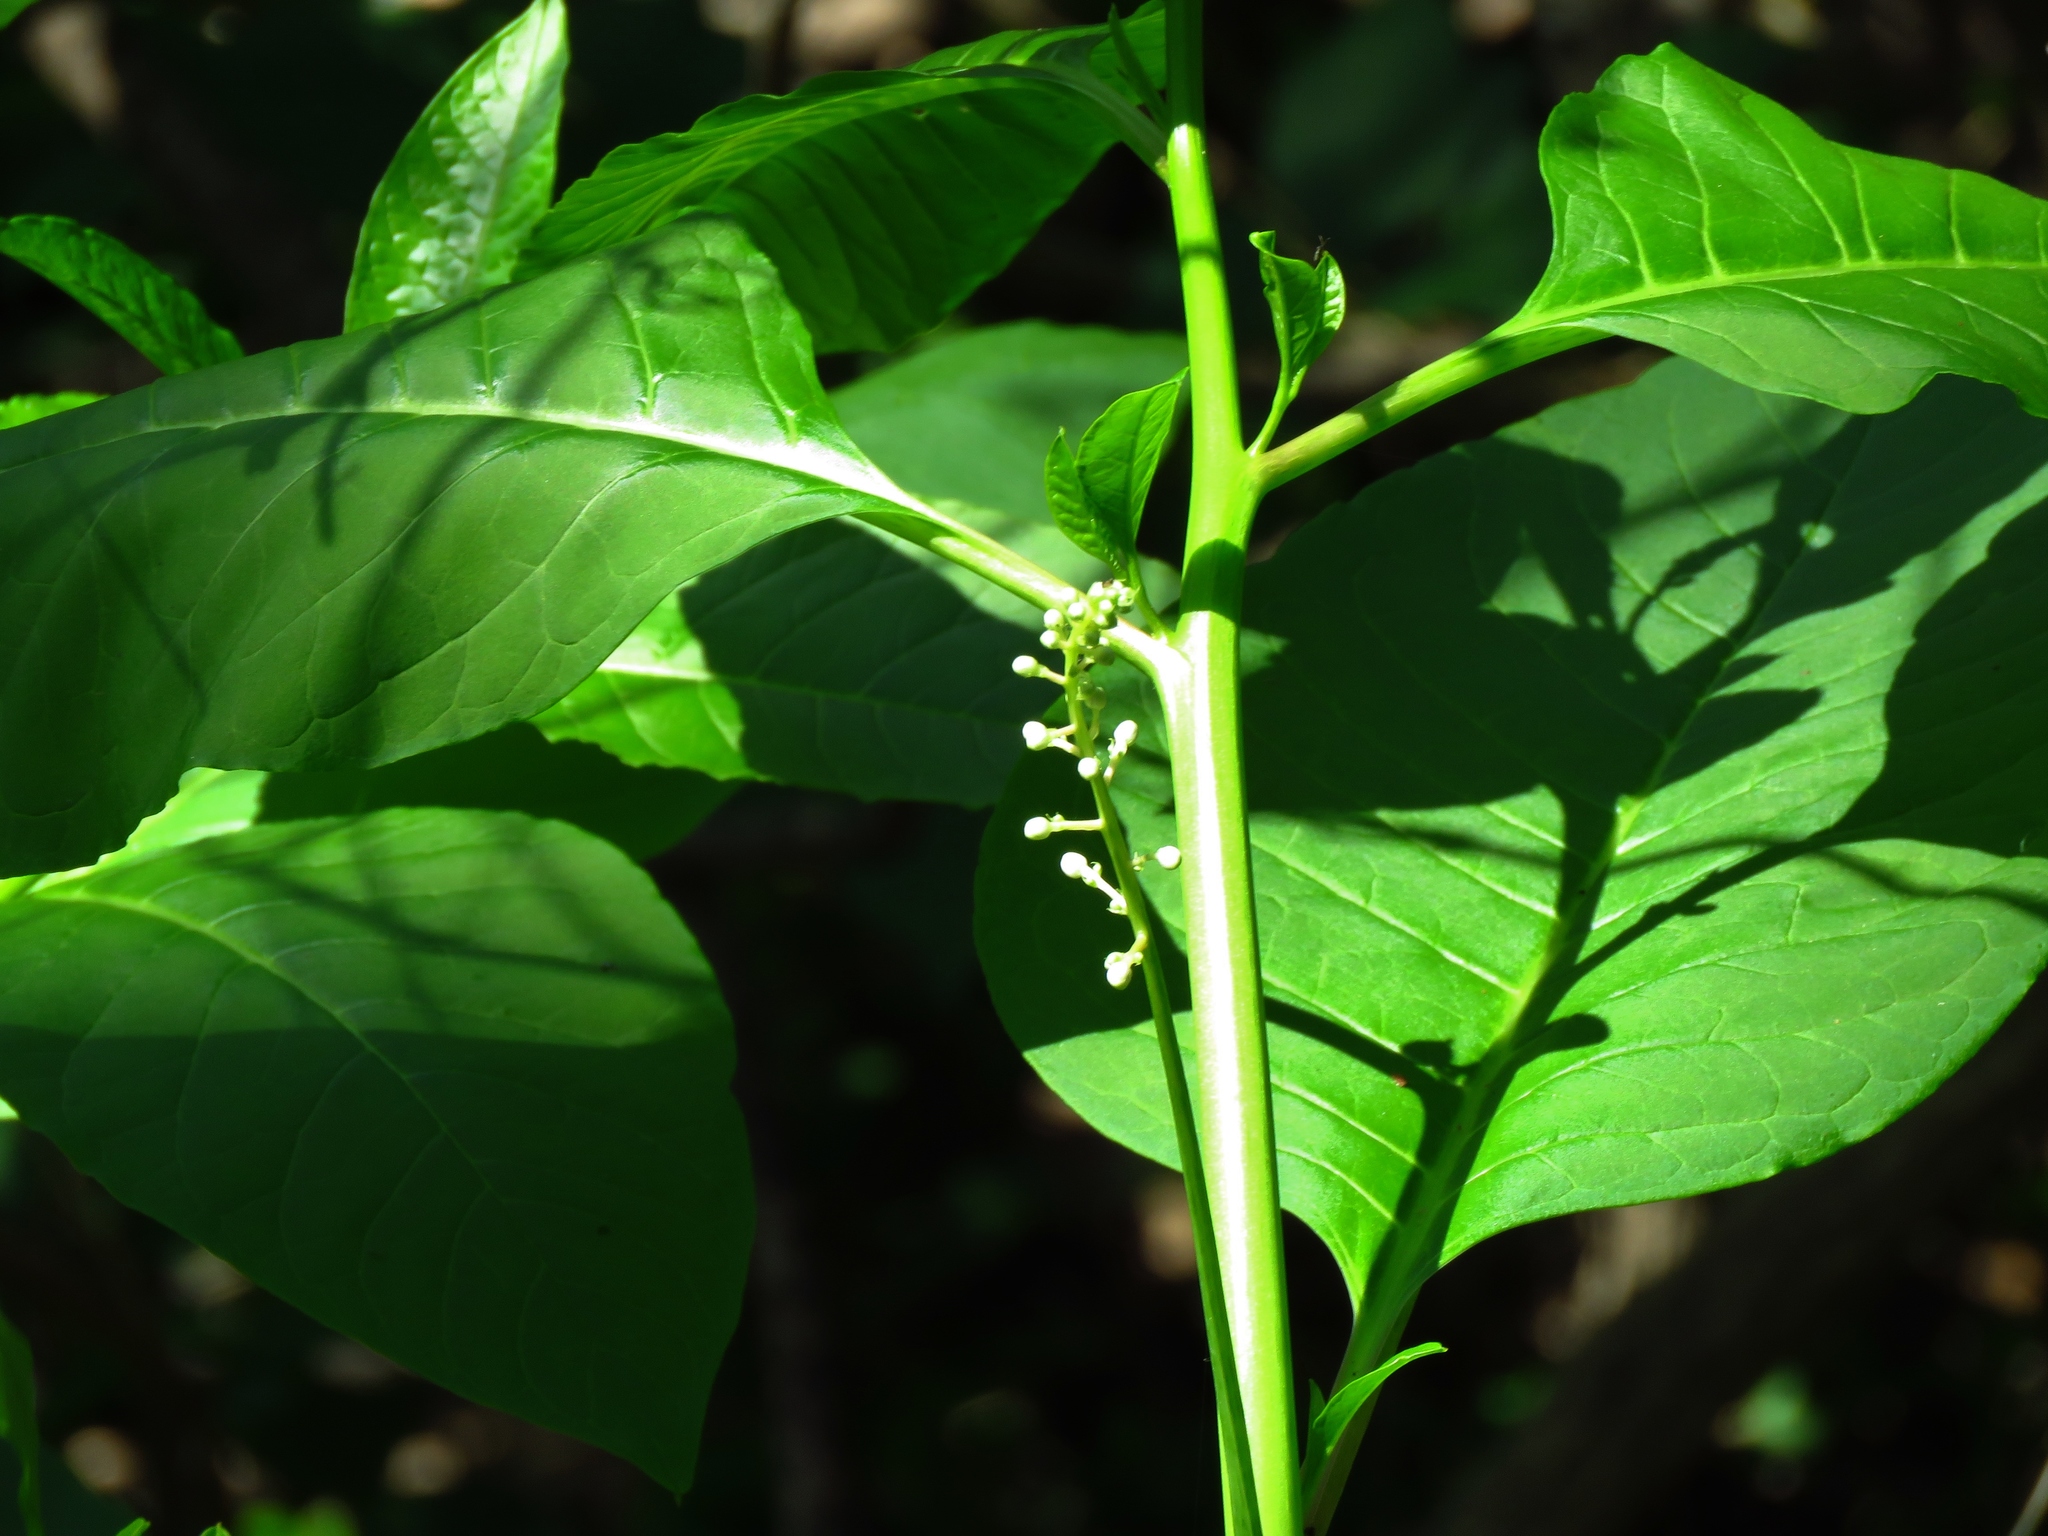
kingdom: Plantae
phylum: Tracheophyta
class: Magnoliopsida
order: Caryophyllales
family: Phytolaccaceae
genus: Phytolacca
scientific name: Phytolacca americana
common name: American pokeweed
